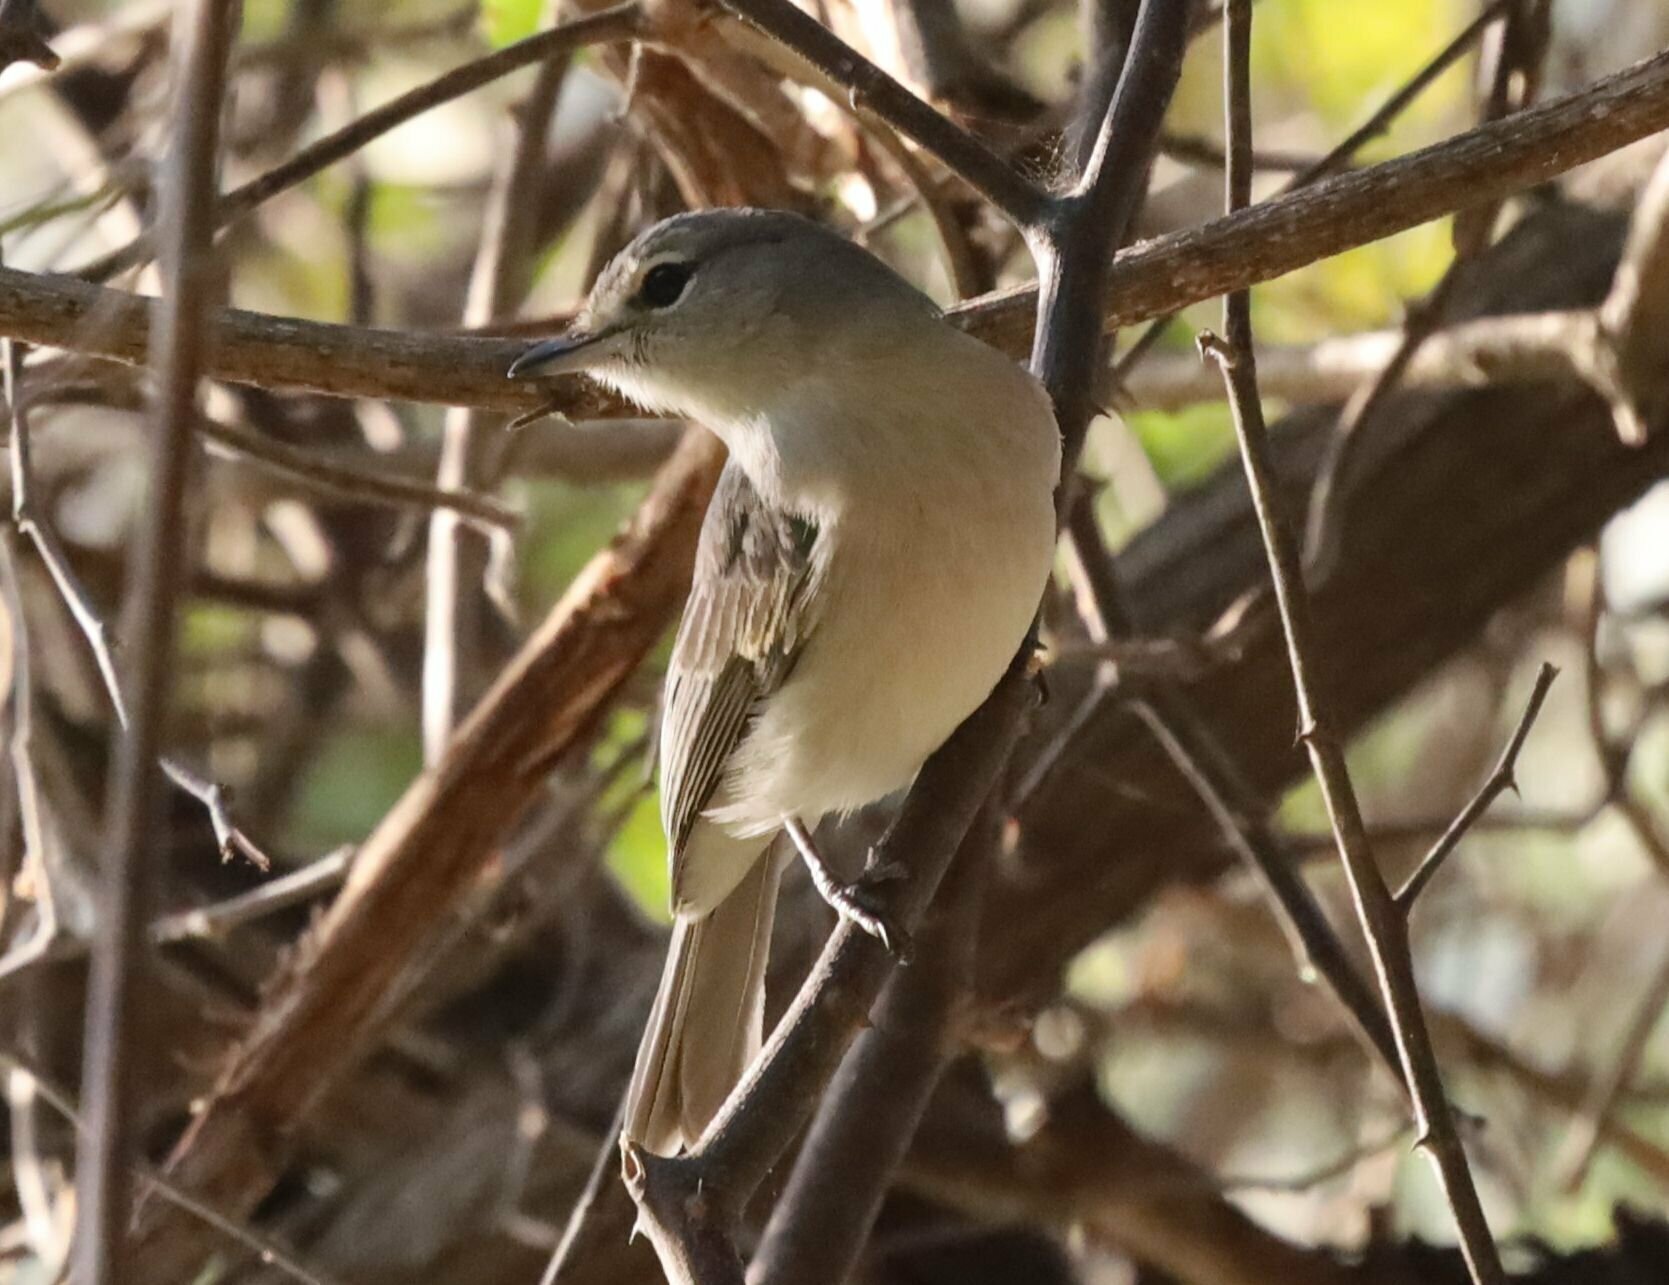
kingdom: Animalia
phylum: Chordata
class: Aves
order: Passeriformes
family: Muscicapidae
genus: Muscicapa
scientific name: Muscicapa caerulescens
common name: Ashy flycatcher
